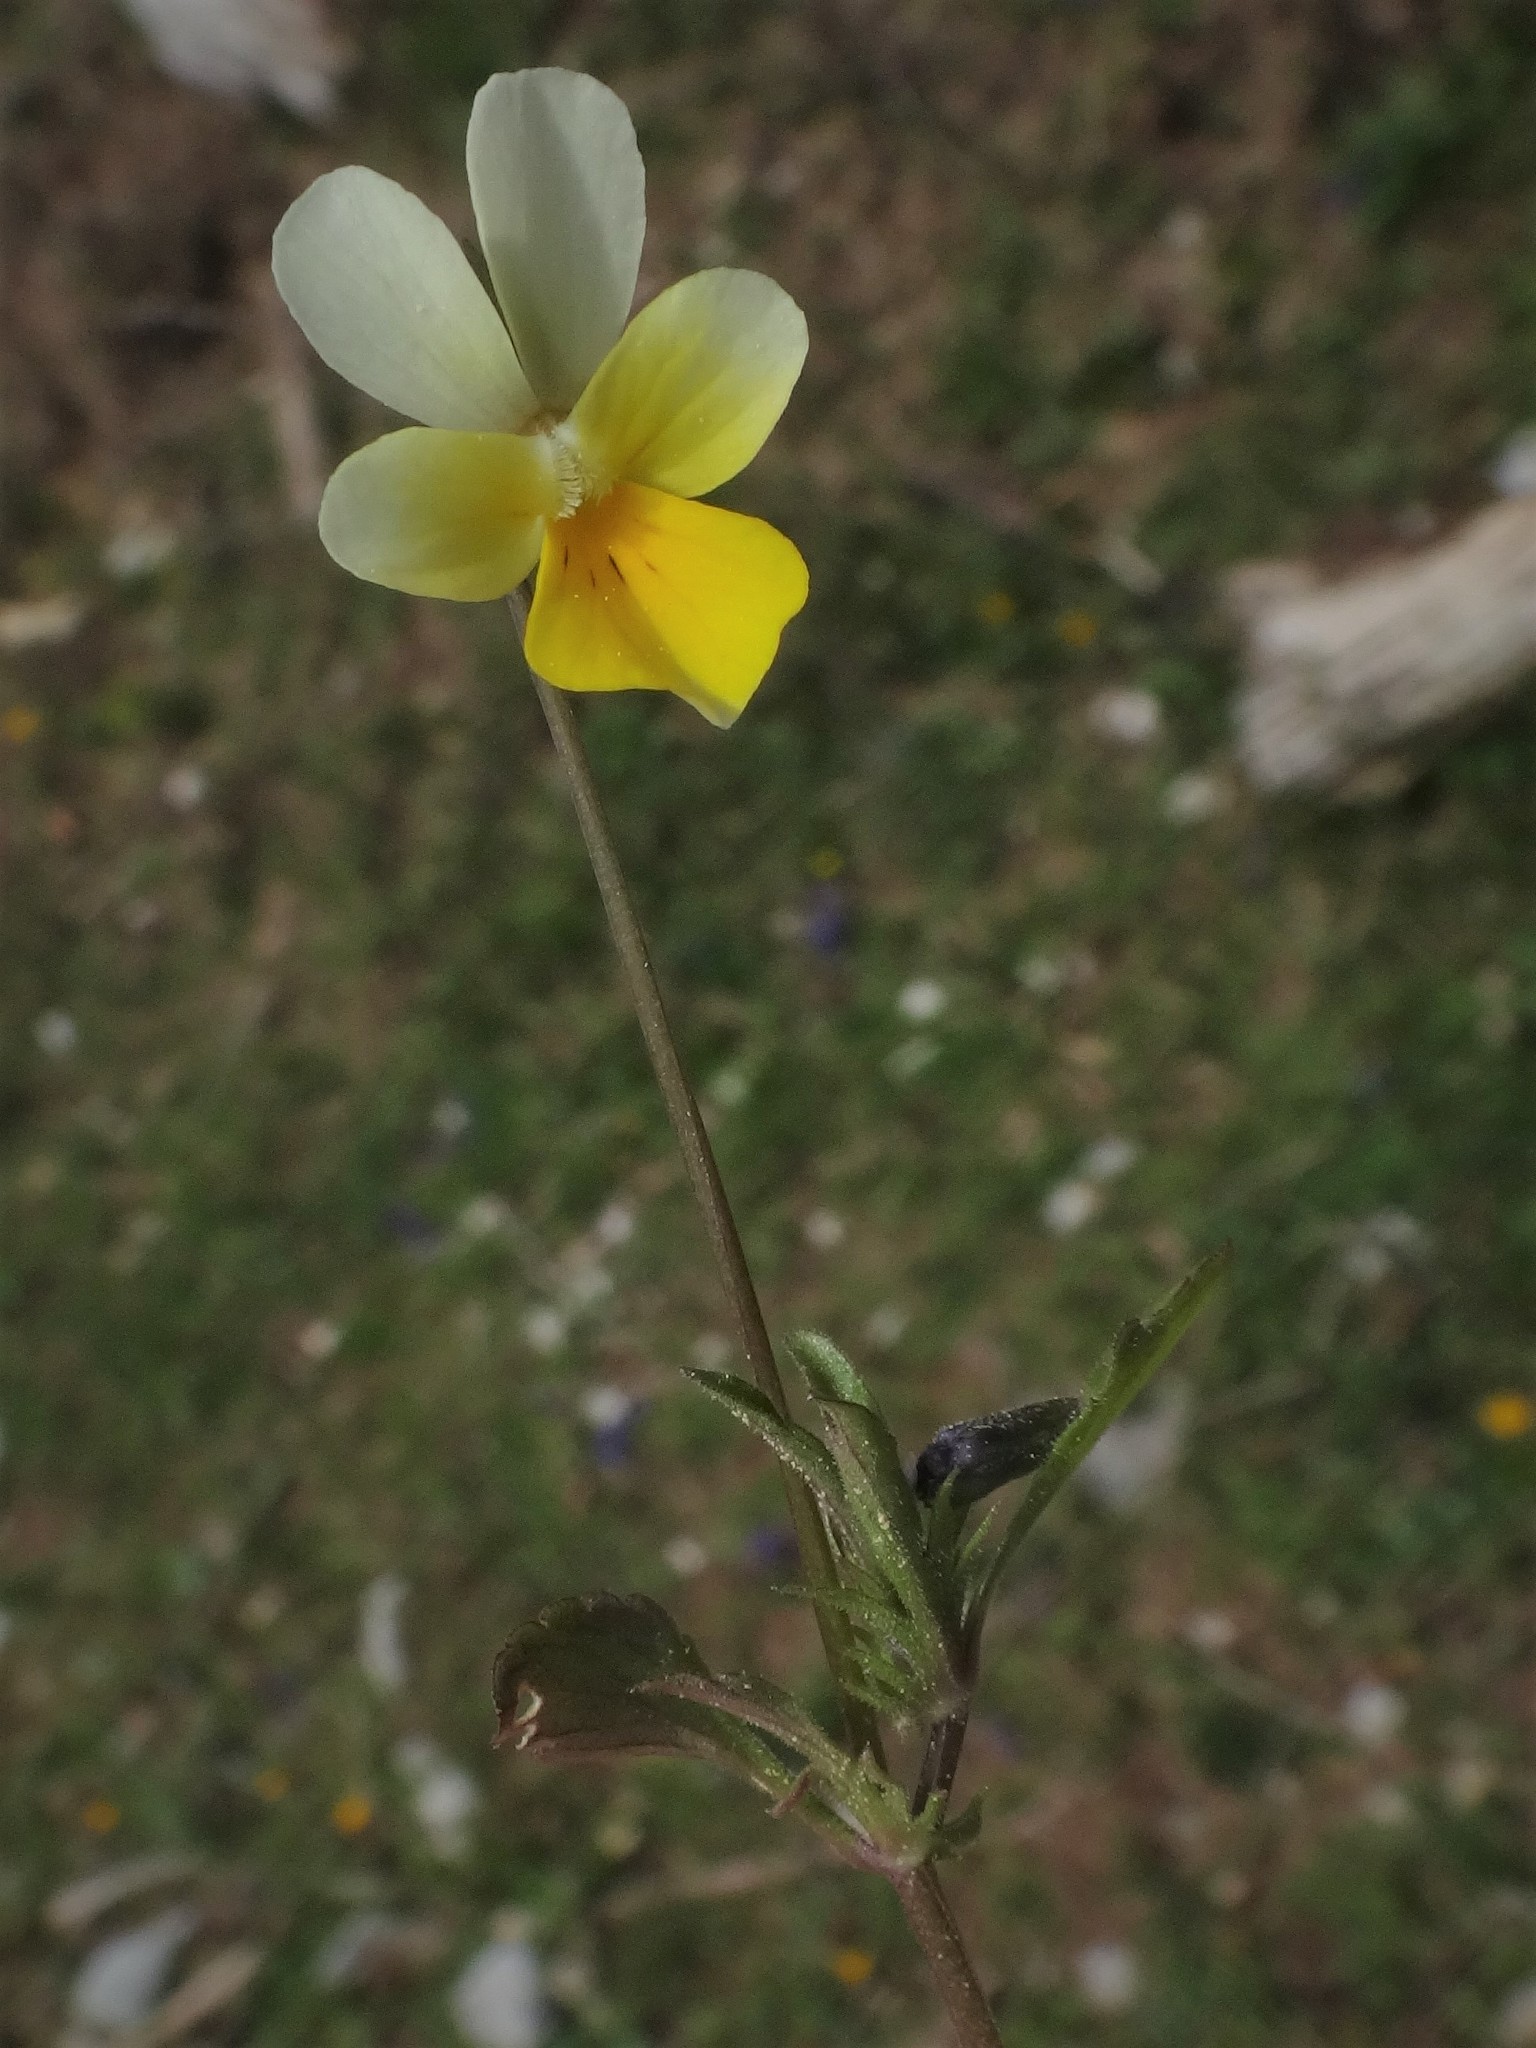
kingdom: Plantae
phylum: Tracheophyta
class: Magnoliopsida
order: Malpighiales
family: Violaceae
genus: Viola
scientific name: Viola tricolor
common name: Pansy
